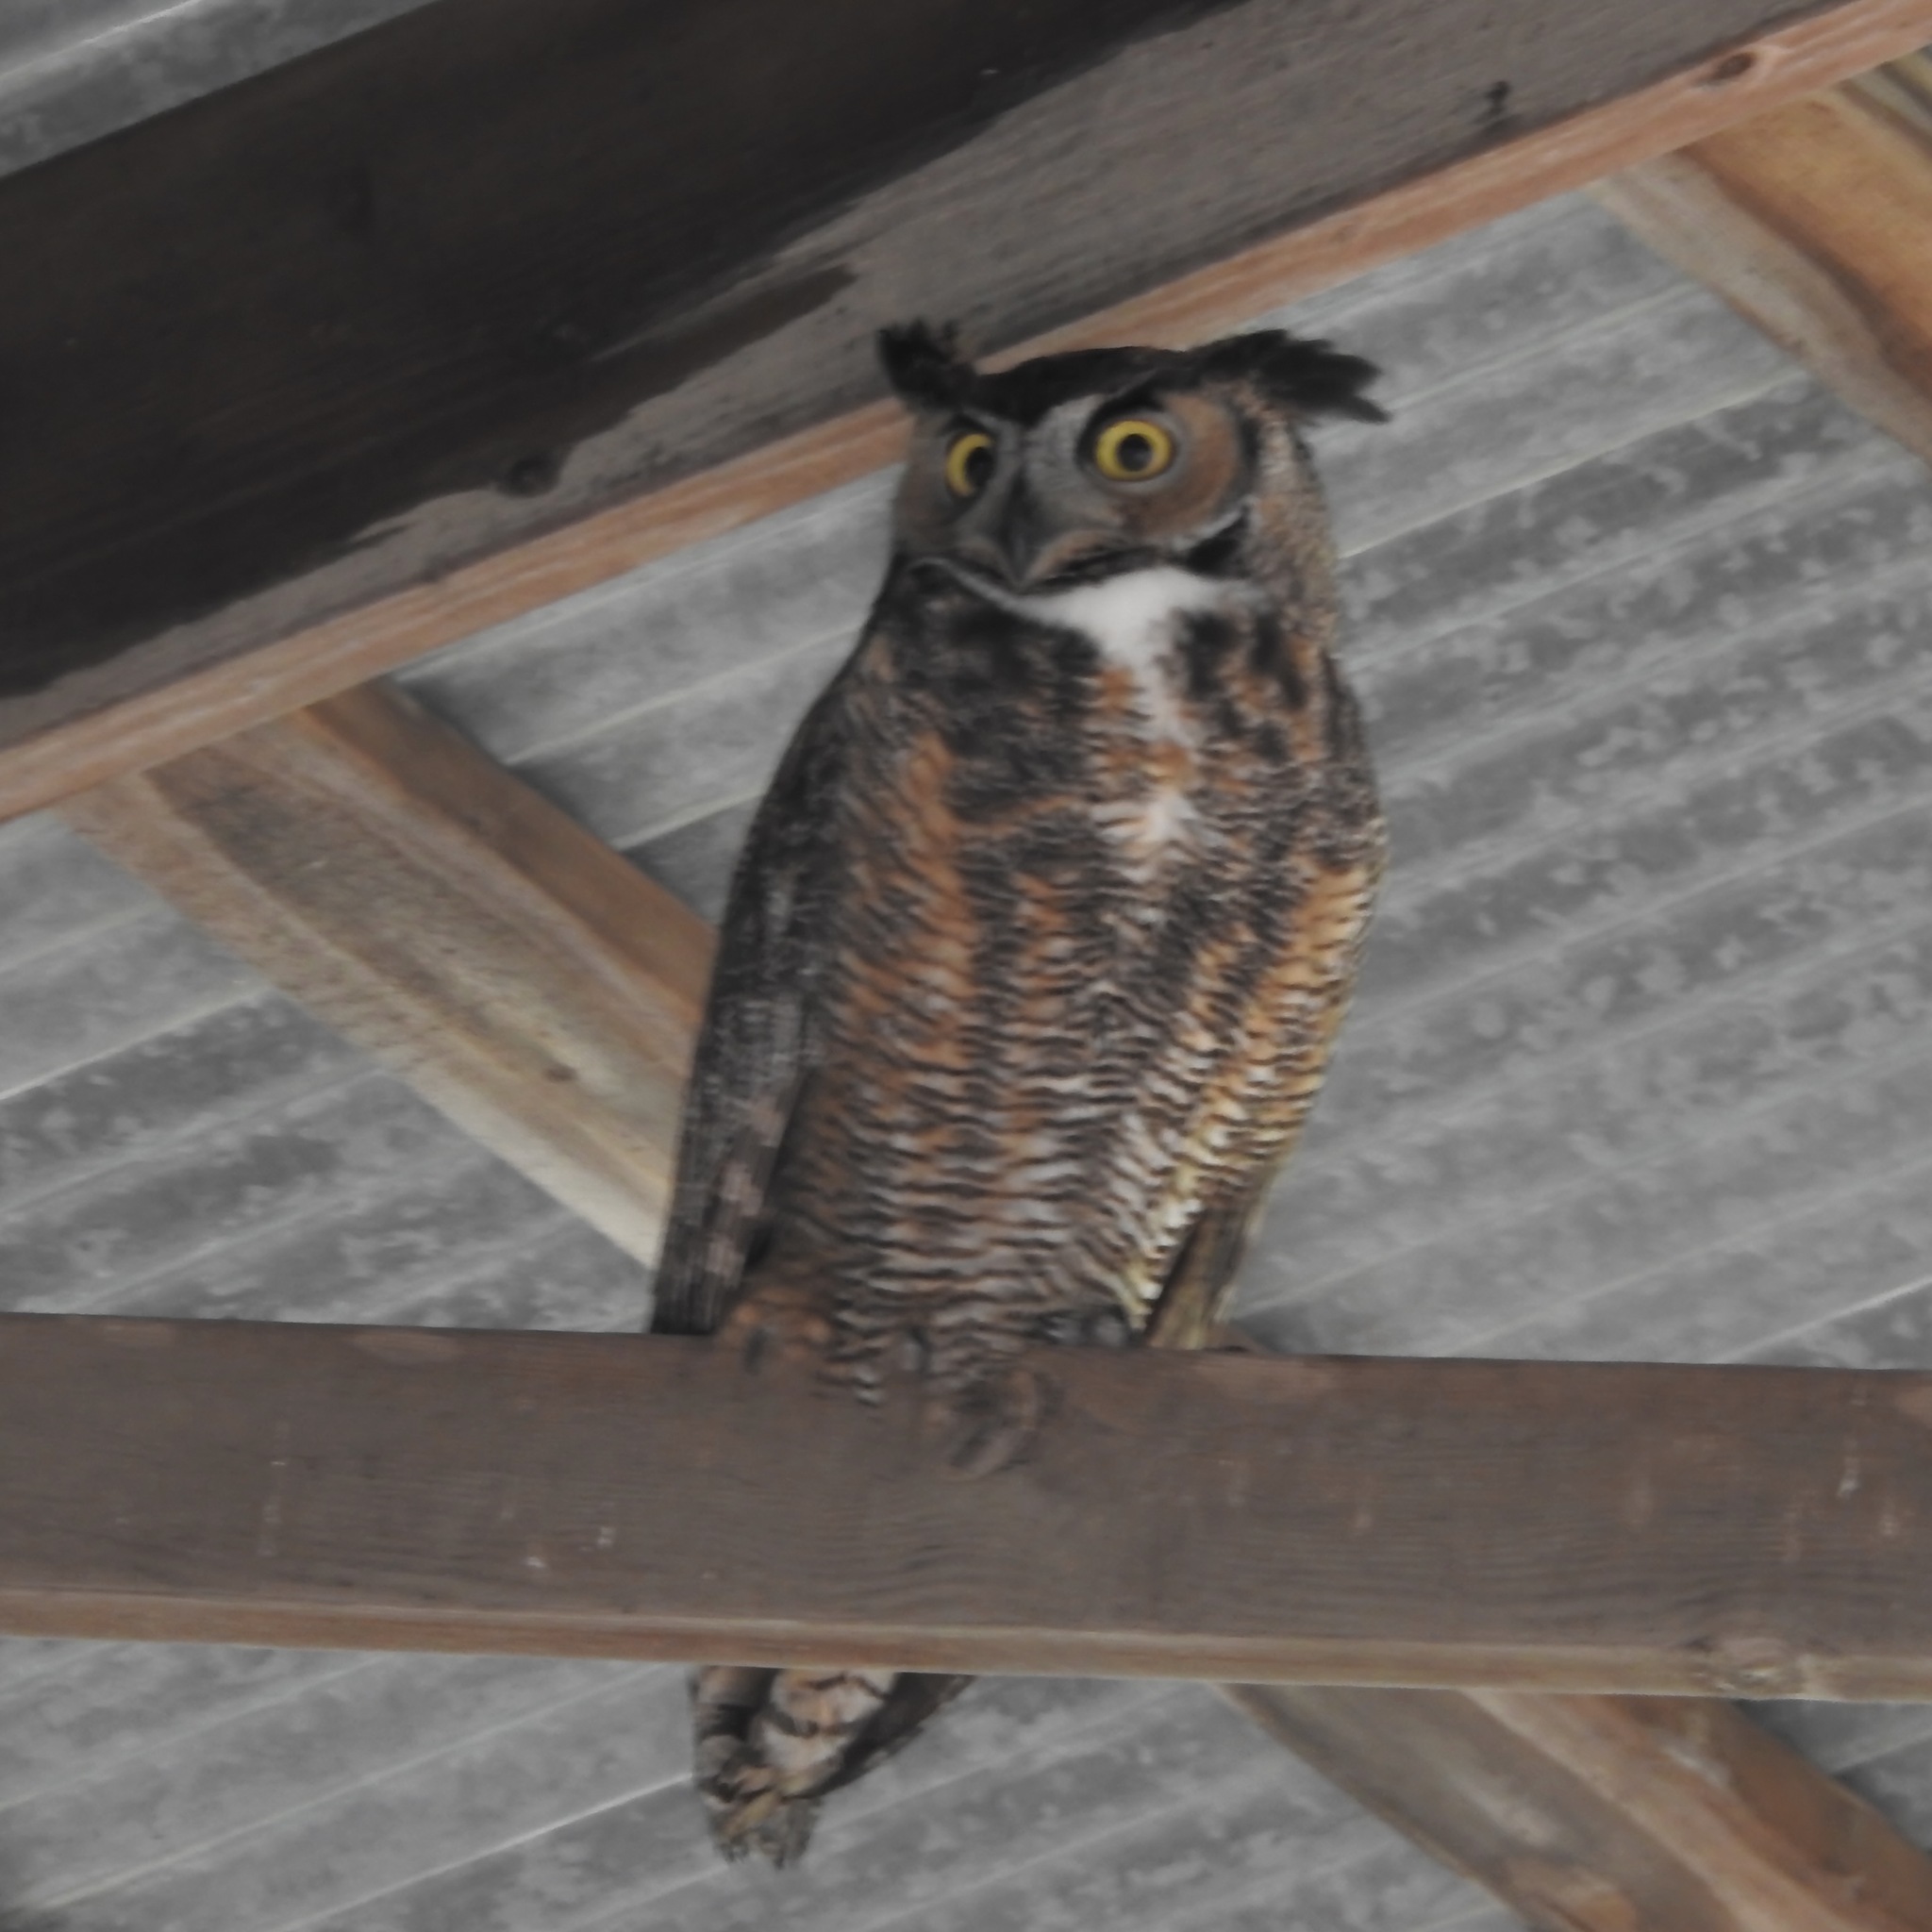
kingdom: Animalia
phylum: Chordata
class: Aves
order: Strigiformes
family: Strigidae
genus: Bubo
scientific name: Bubo virginianus
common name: Great horned owl
